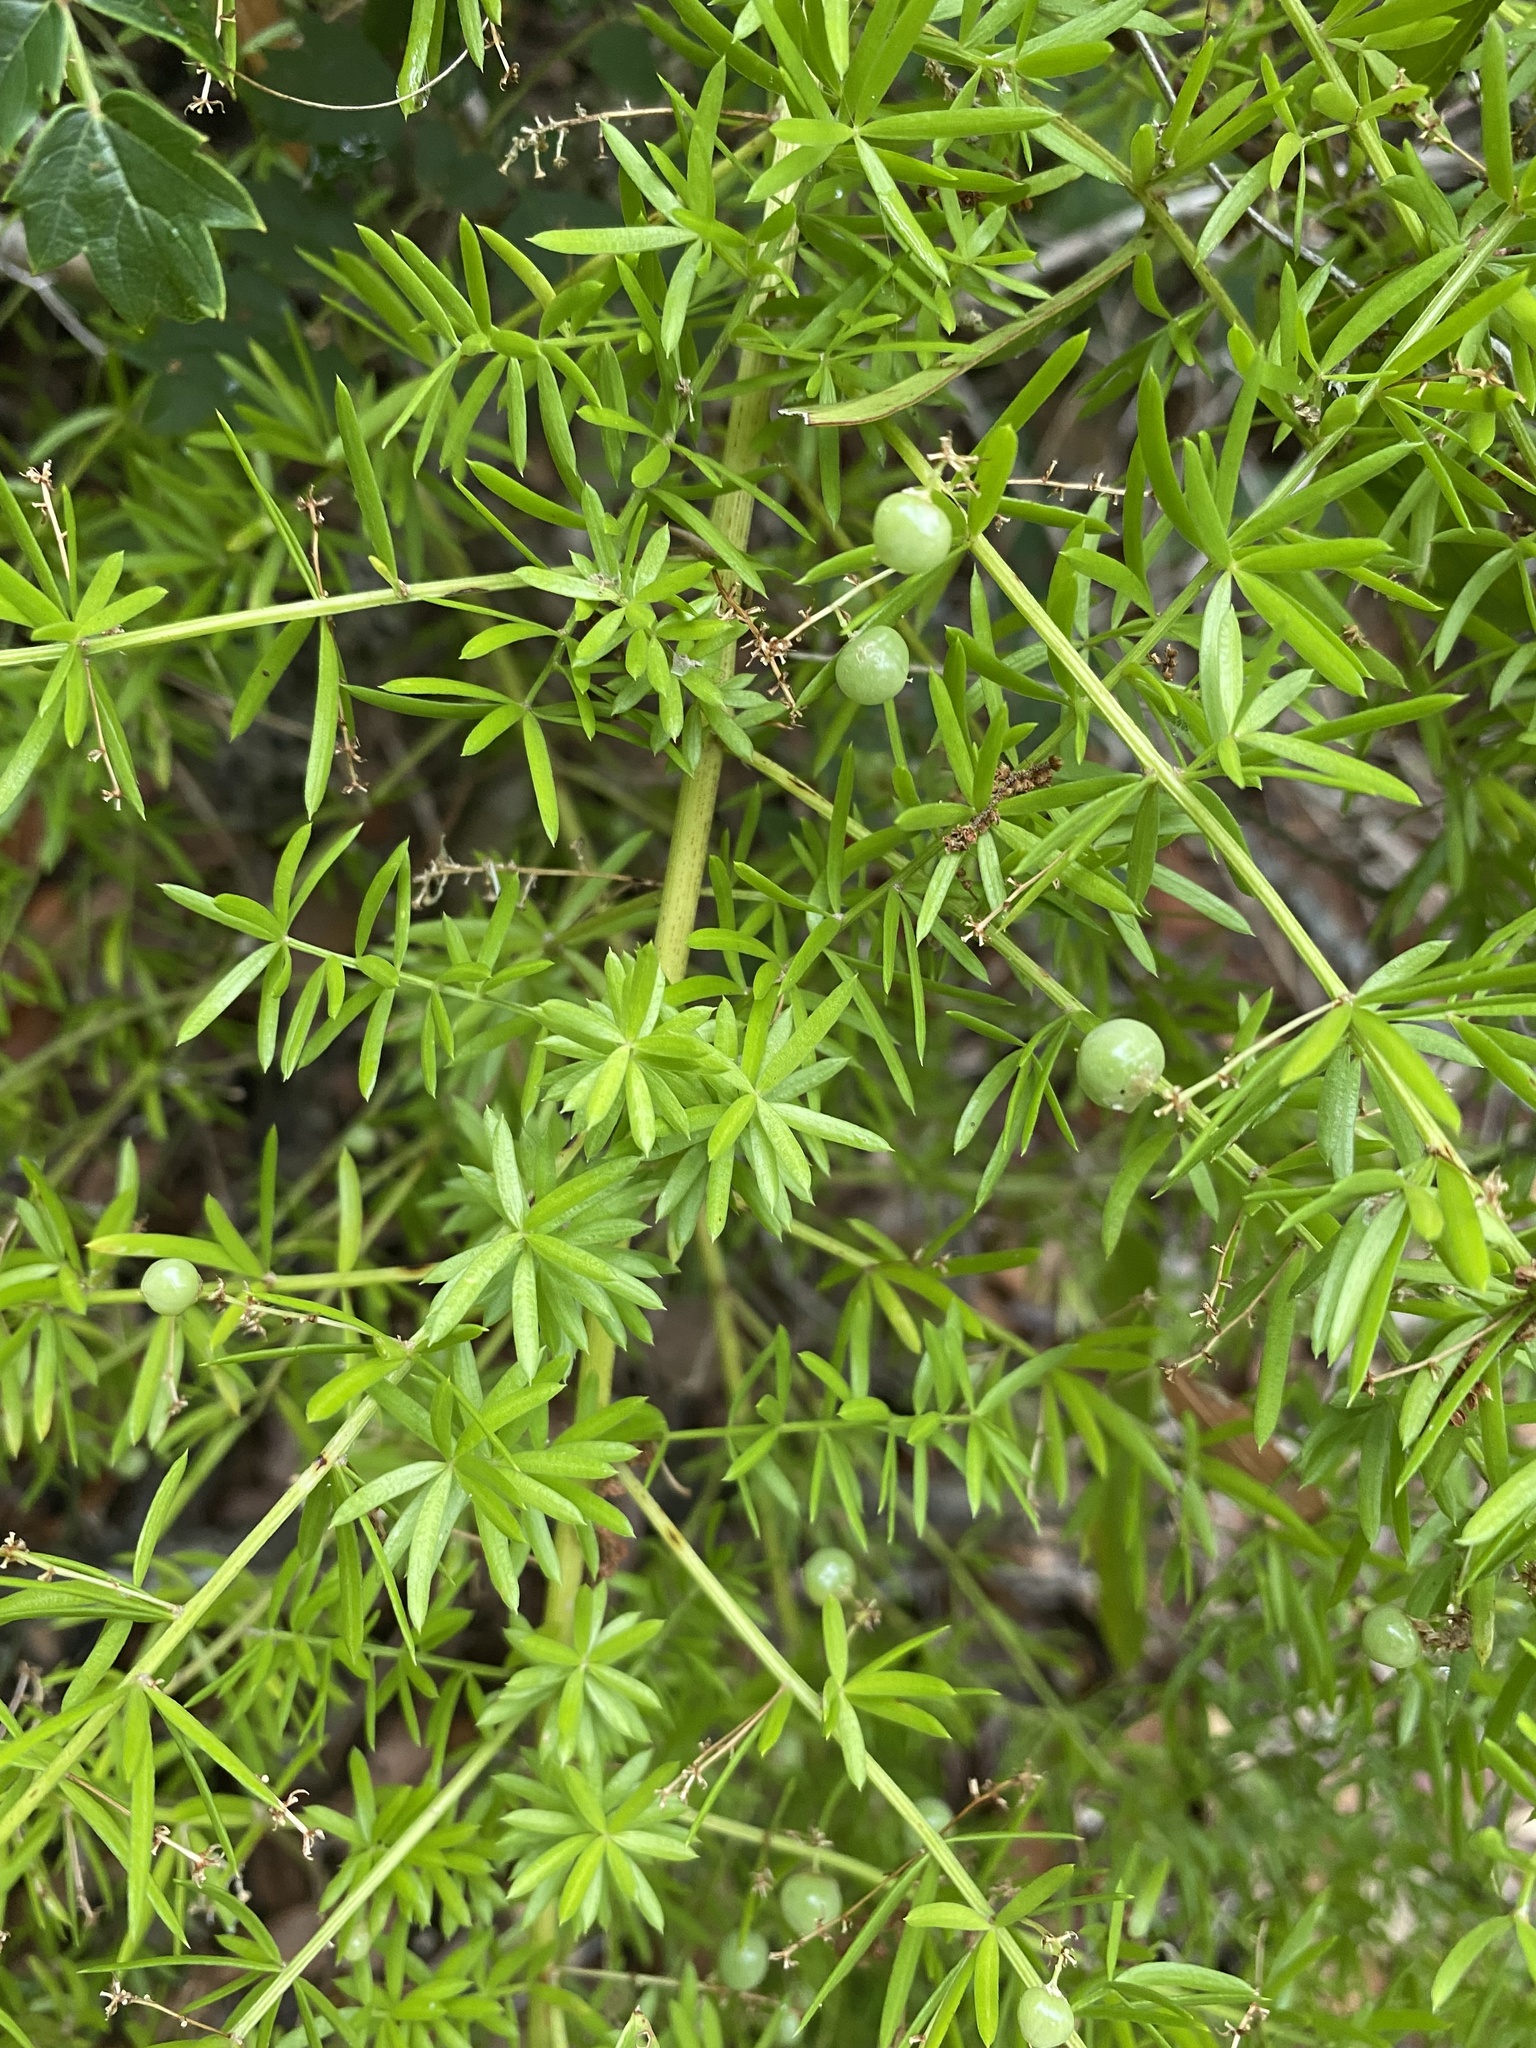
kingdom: Plantae
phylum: Tracheophyta
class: Liliopsida
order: Asparagales
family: Asparagaceae
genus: Asparagus
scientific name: Asparagus aethiopicus
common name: Sprenger's asparagus fern
